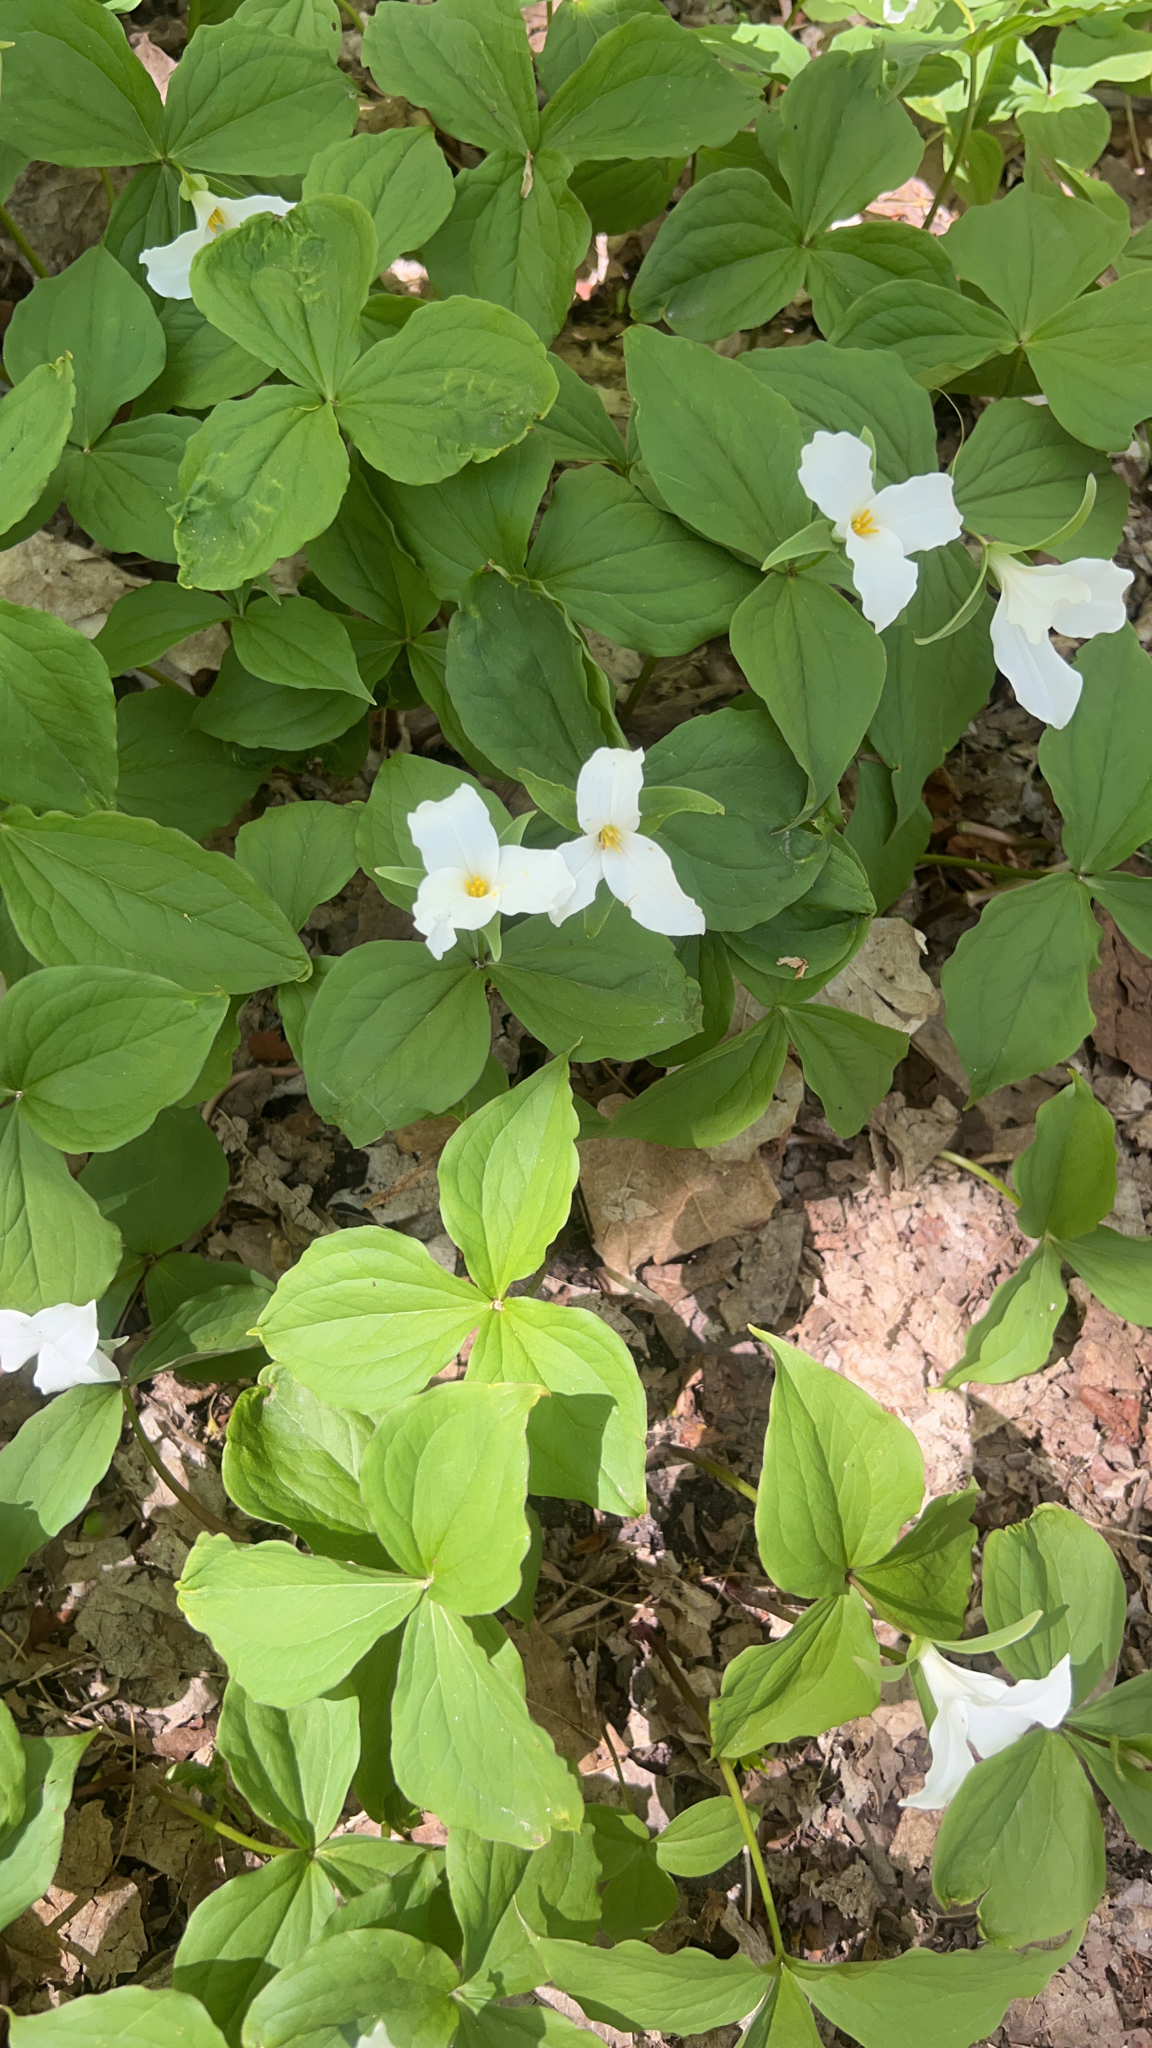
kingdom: Plantae
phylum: Tracheophyta
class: Liliopsida
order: Liliales
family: Melanthiaceae
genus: Trillium
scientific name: Trillium grandiflorum
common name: Great white trillium
